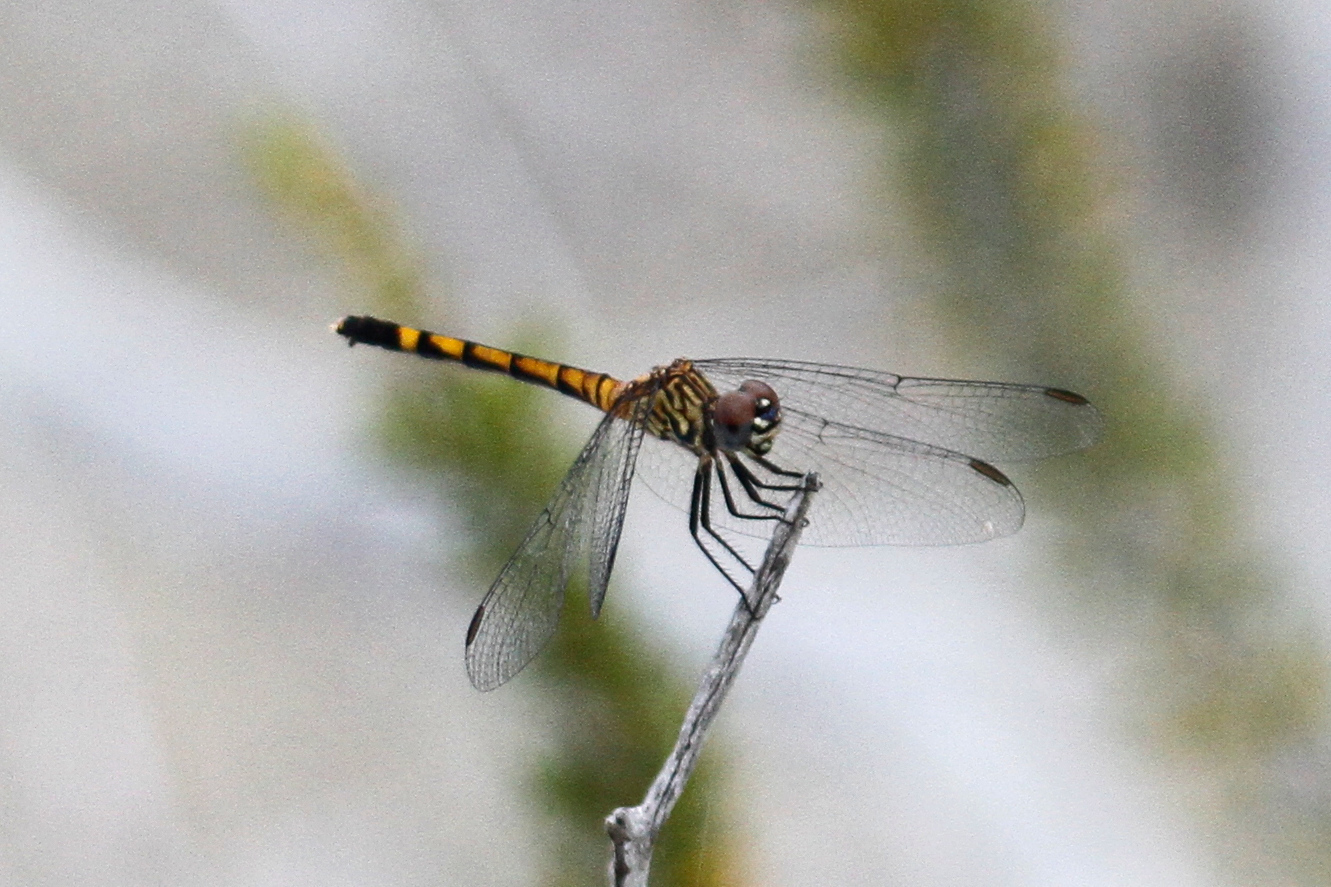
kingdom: Animalia
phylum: Arthropoda
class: Insecta
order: Odonata
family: Libellulidae
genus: Erythrodiplax
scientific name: Erythrodiplax berenice
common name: Seaside dragonlet
